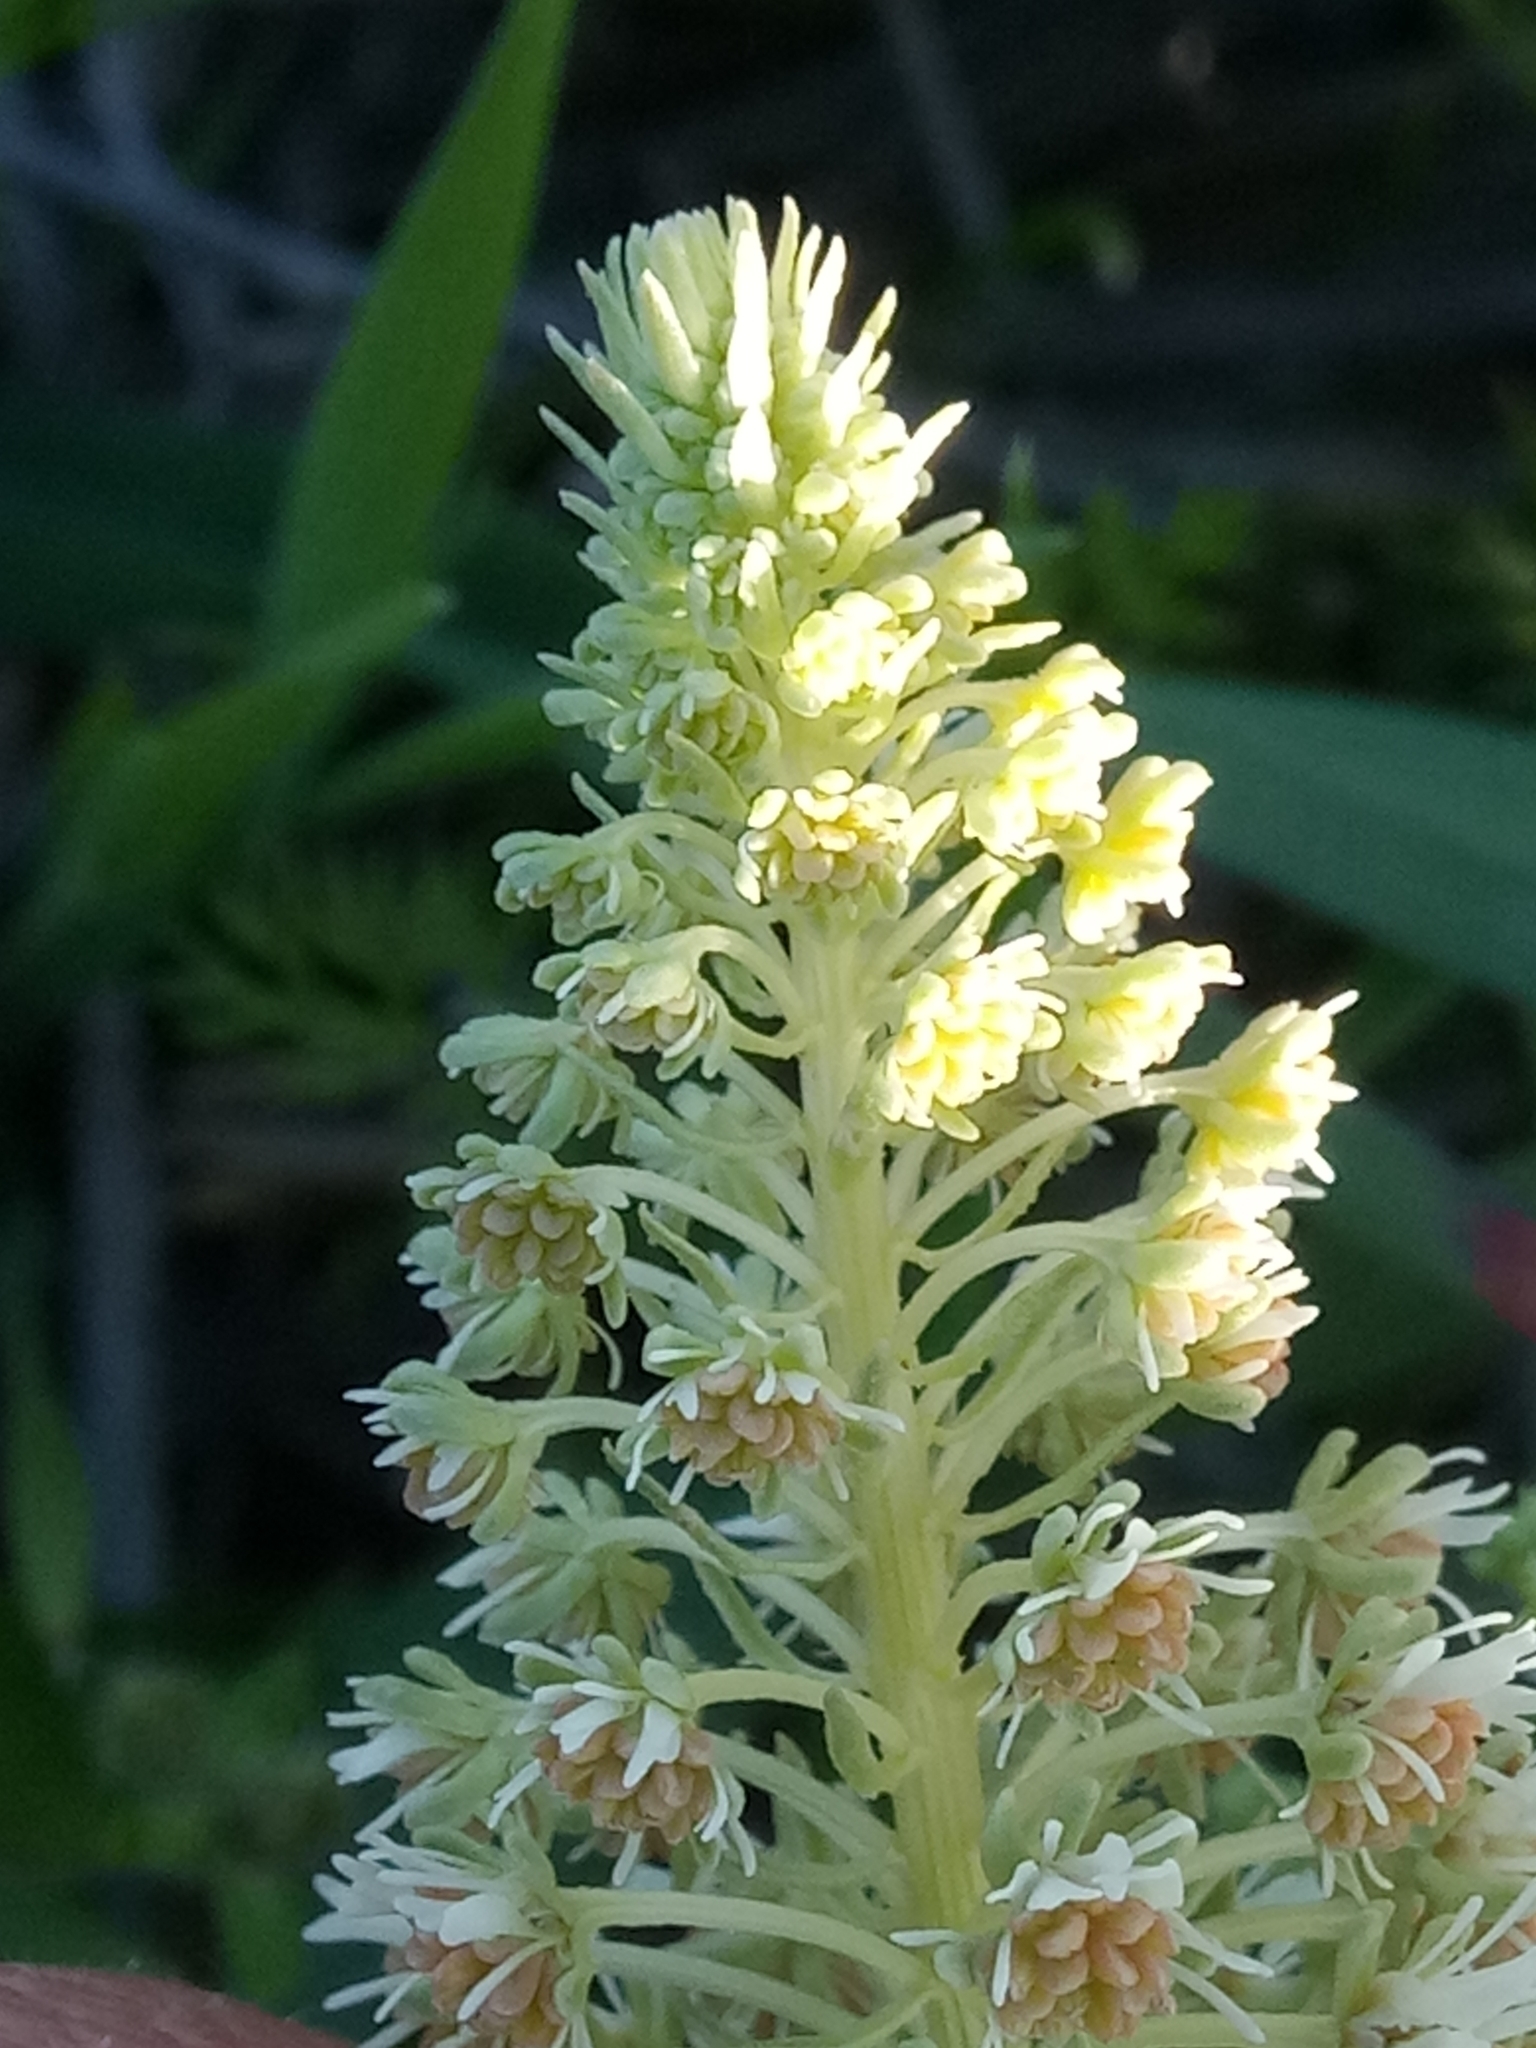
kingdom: Plantae
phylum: Tracheophyta
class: Magnoliopsida
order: Brassicales
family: Resedaceae
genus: Reseda
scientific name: Reseda duriaeana
